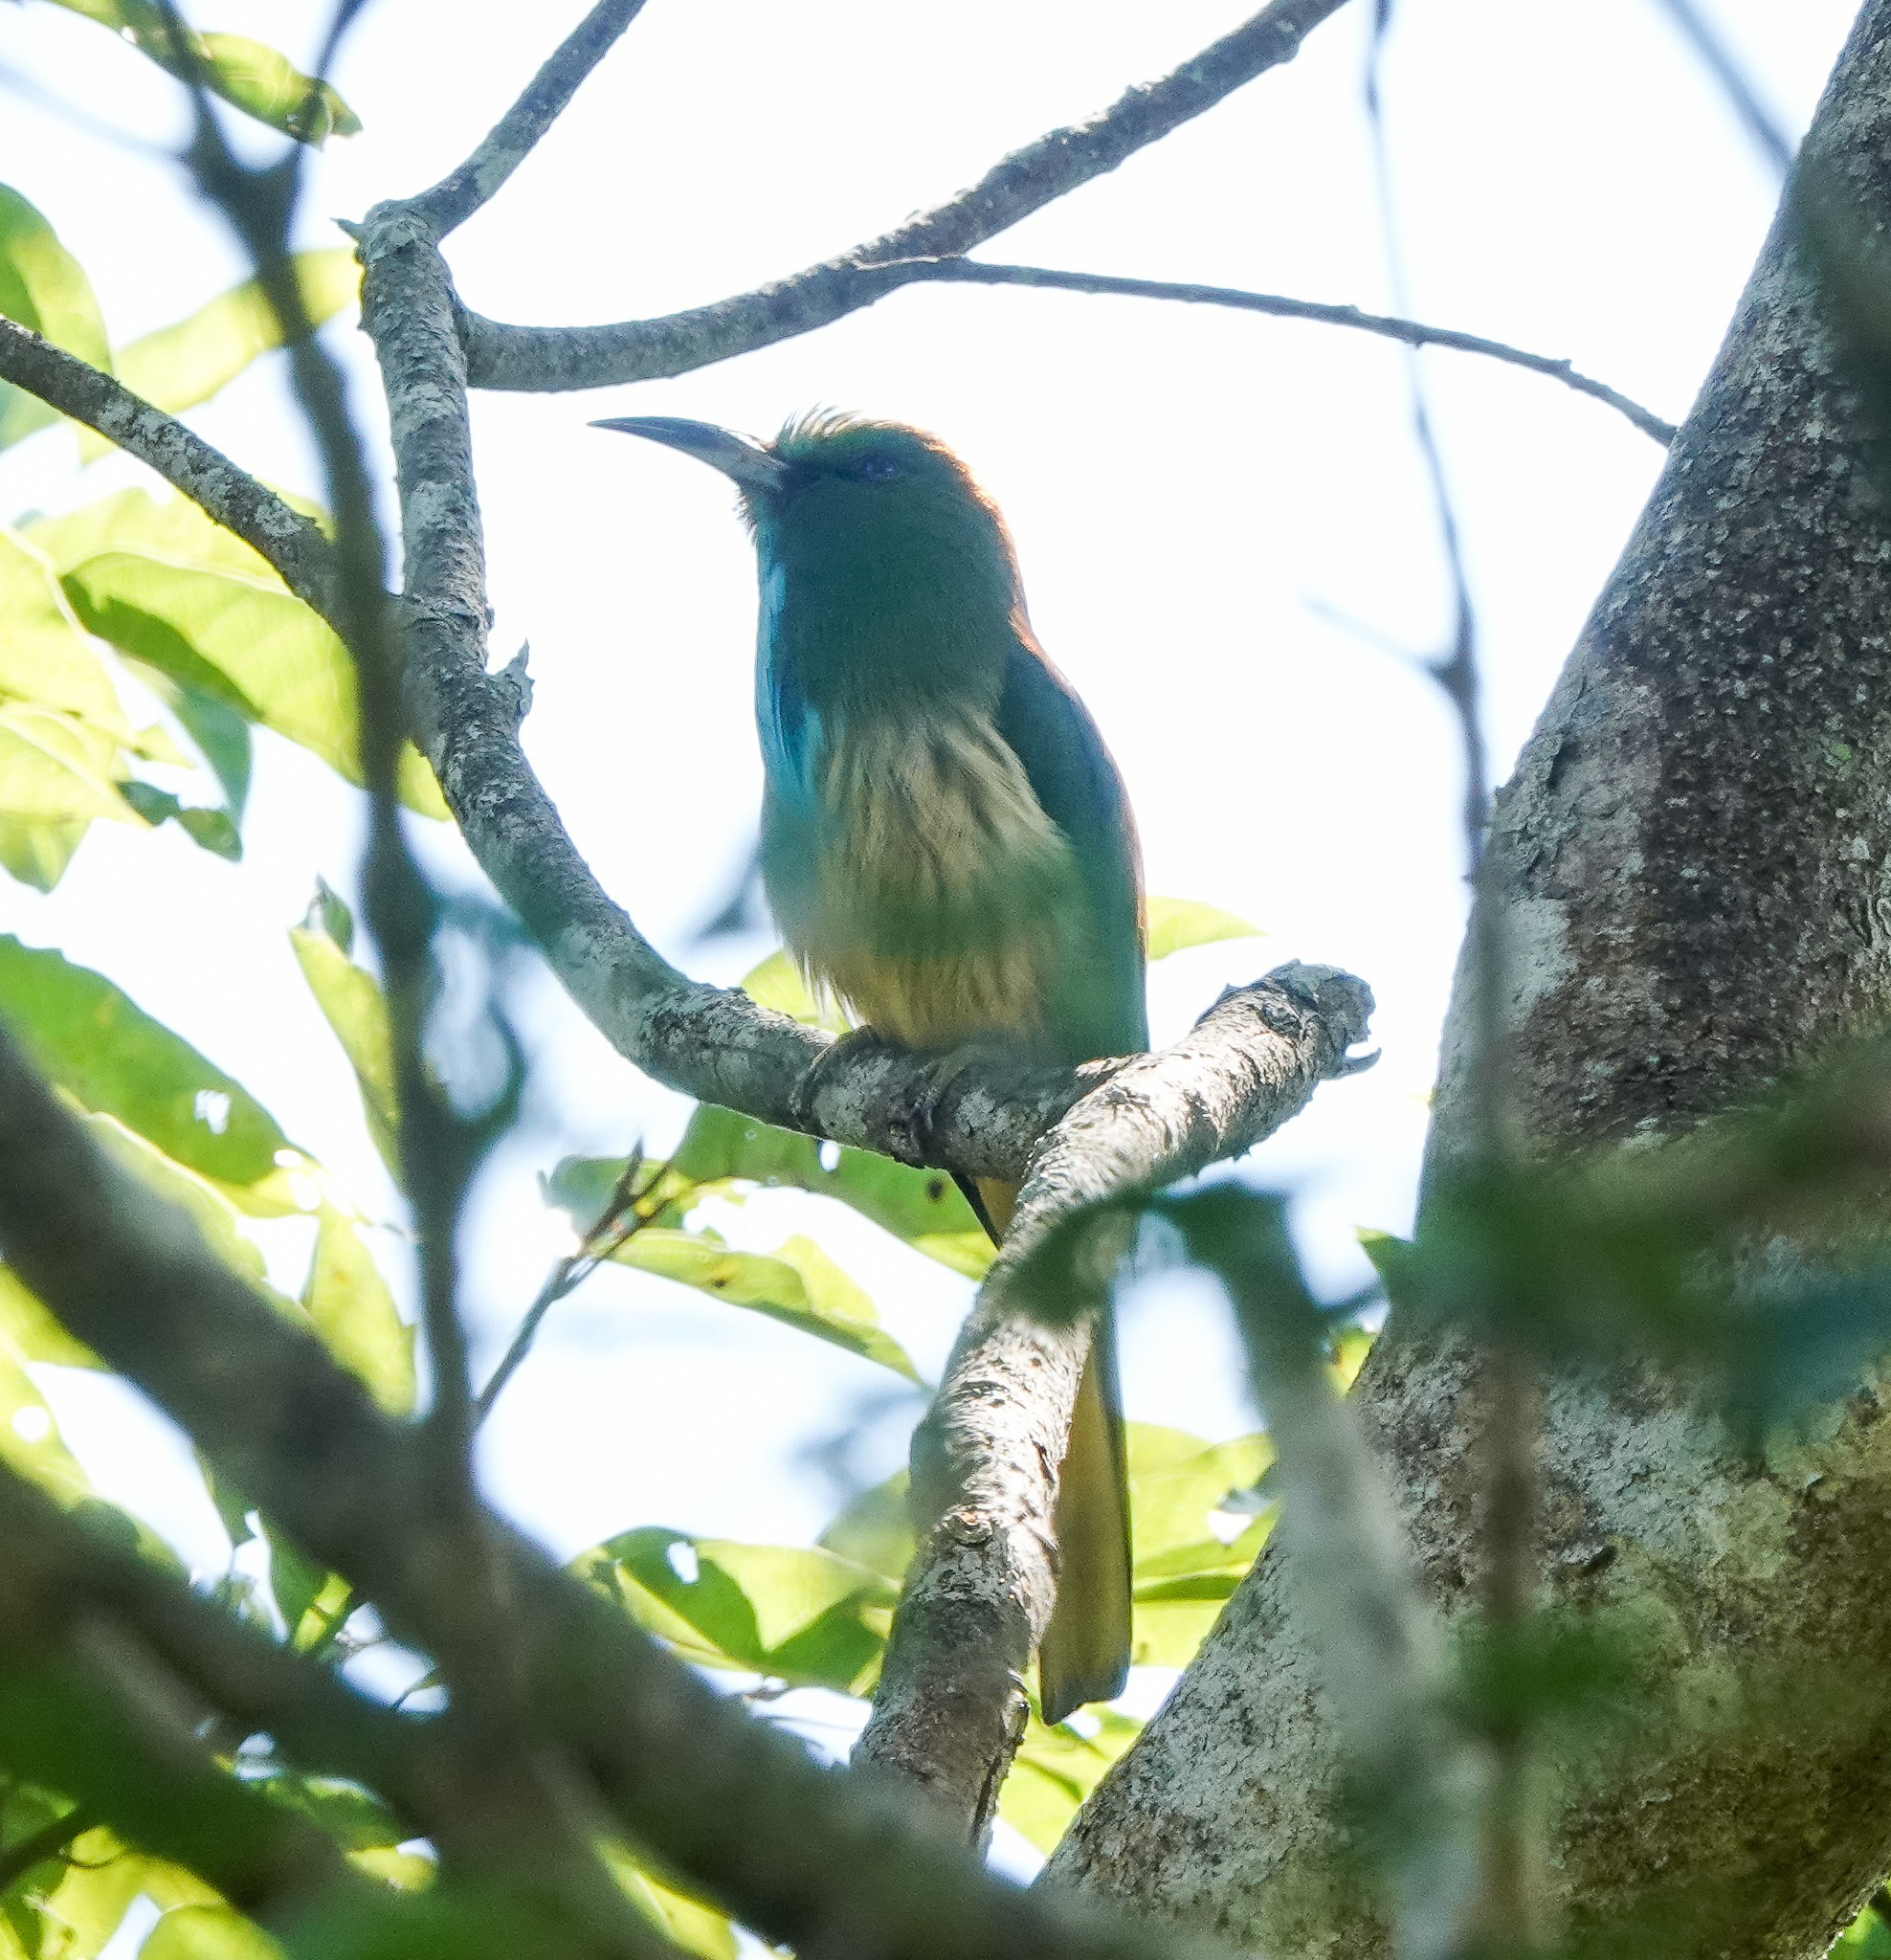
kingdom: Animalia
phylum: Chordata
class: Aves
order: Coraciiformes
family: Meropidae
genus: Nyctyornis
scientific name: Nyctyornis athertoni
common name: Blue-bearded bee-eater
